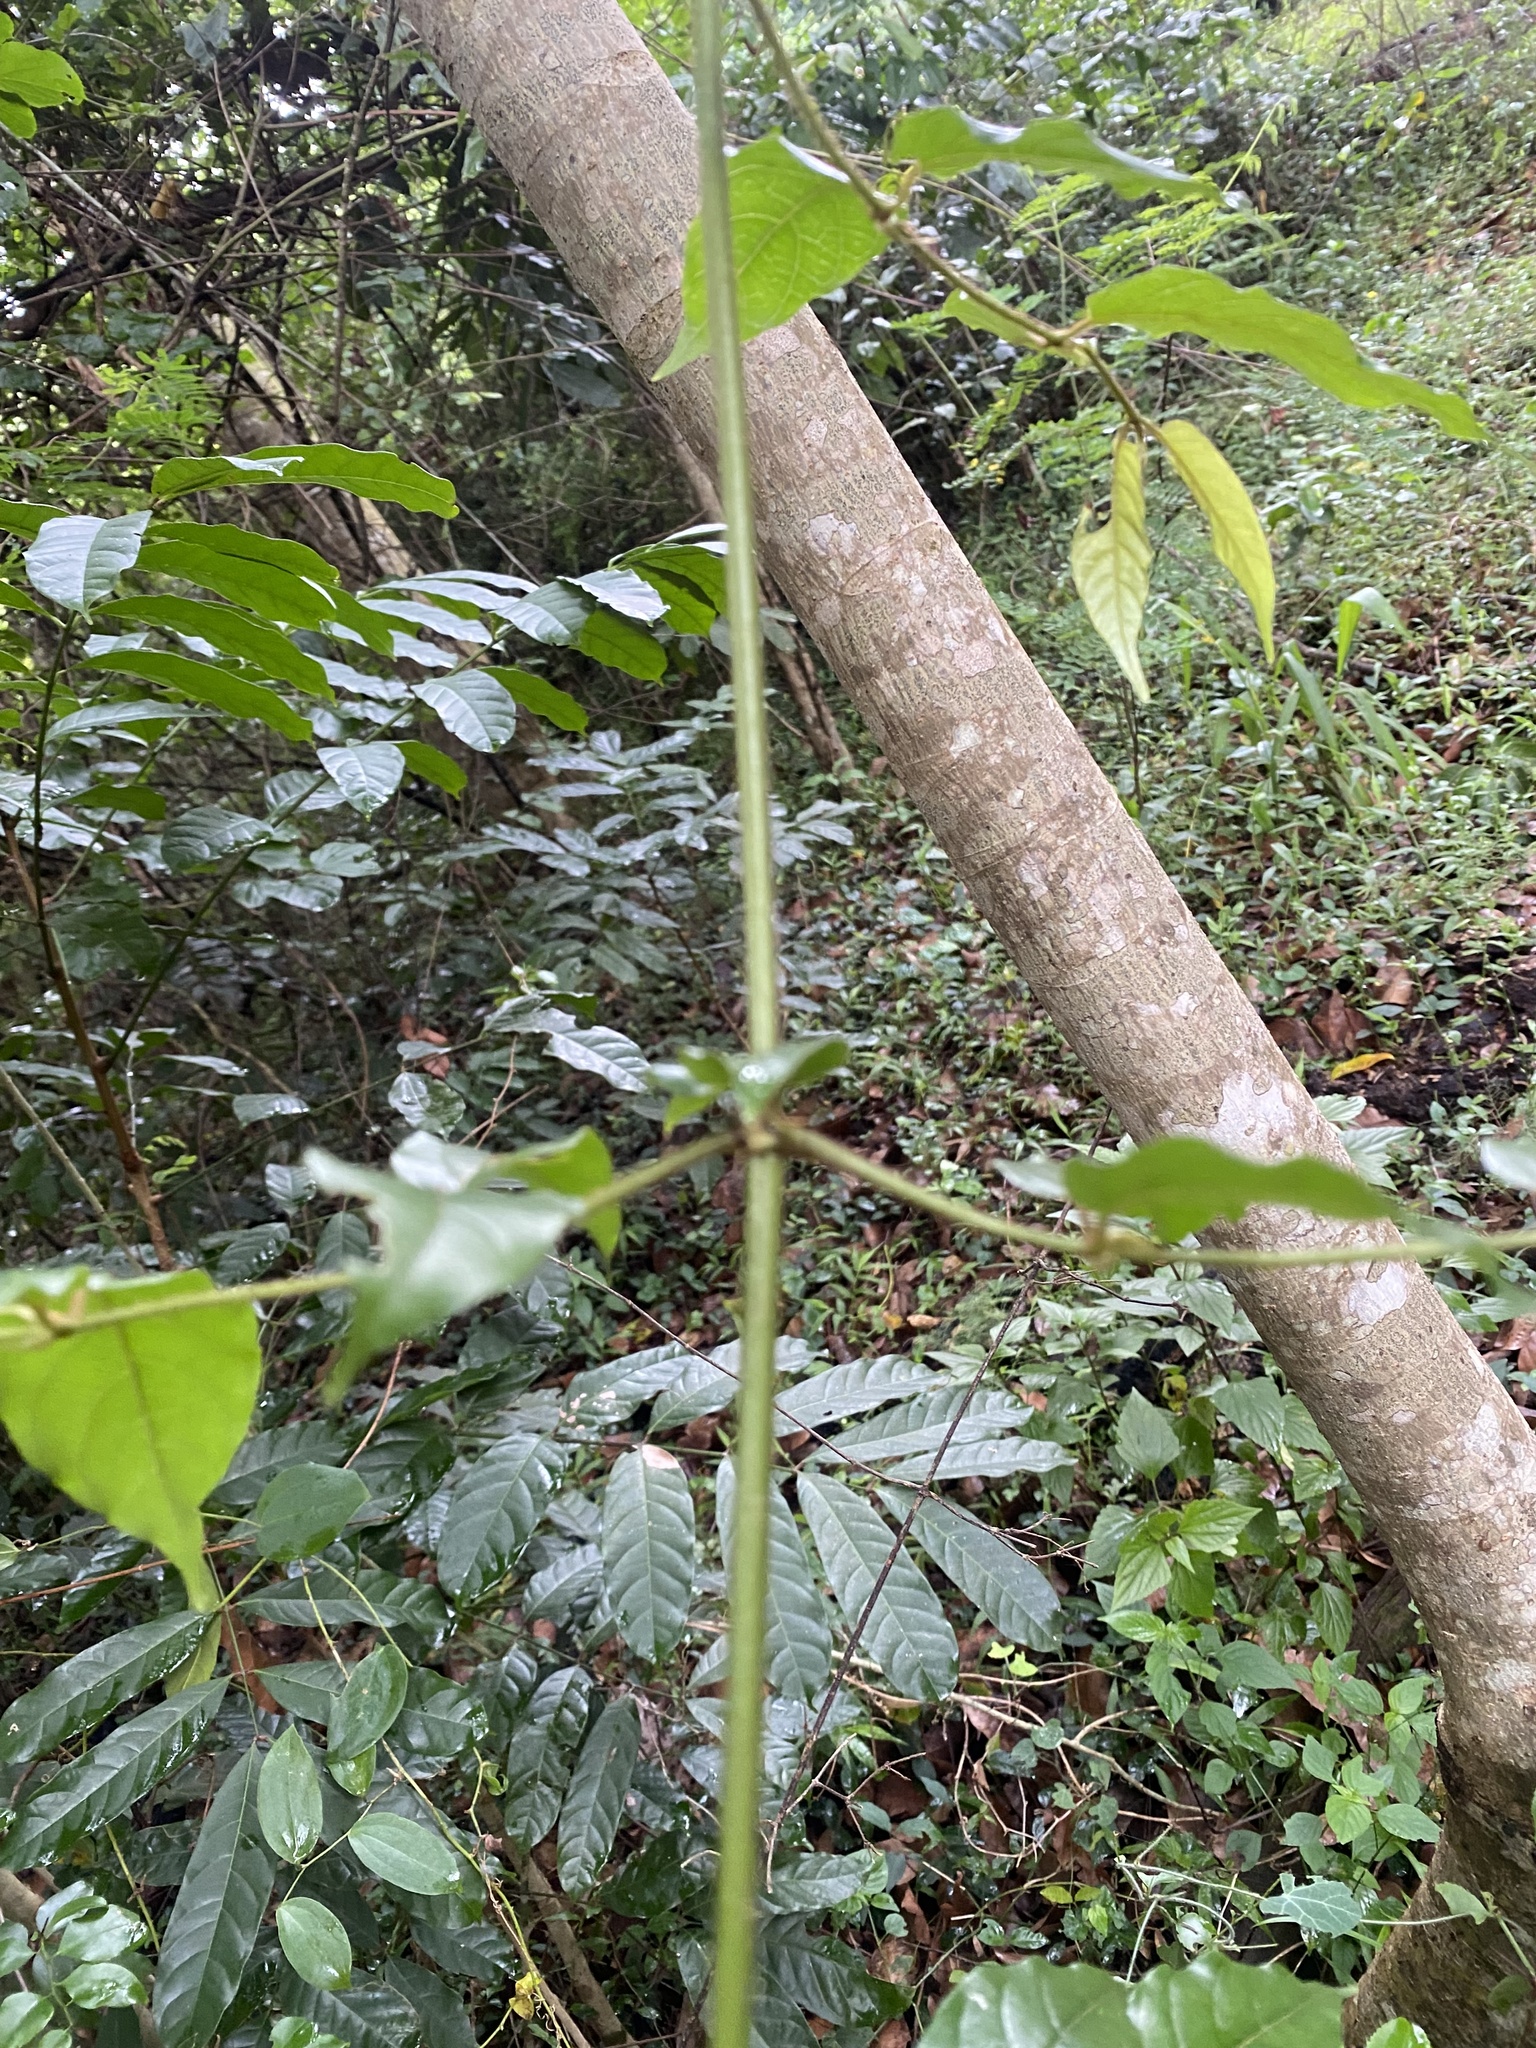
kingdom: Plantae
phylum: Tracheophyta
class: Magnoliopsida
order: Gentianales
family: Rubiaceae
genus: Keetia
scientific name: Keetia gueinzii
